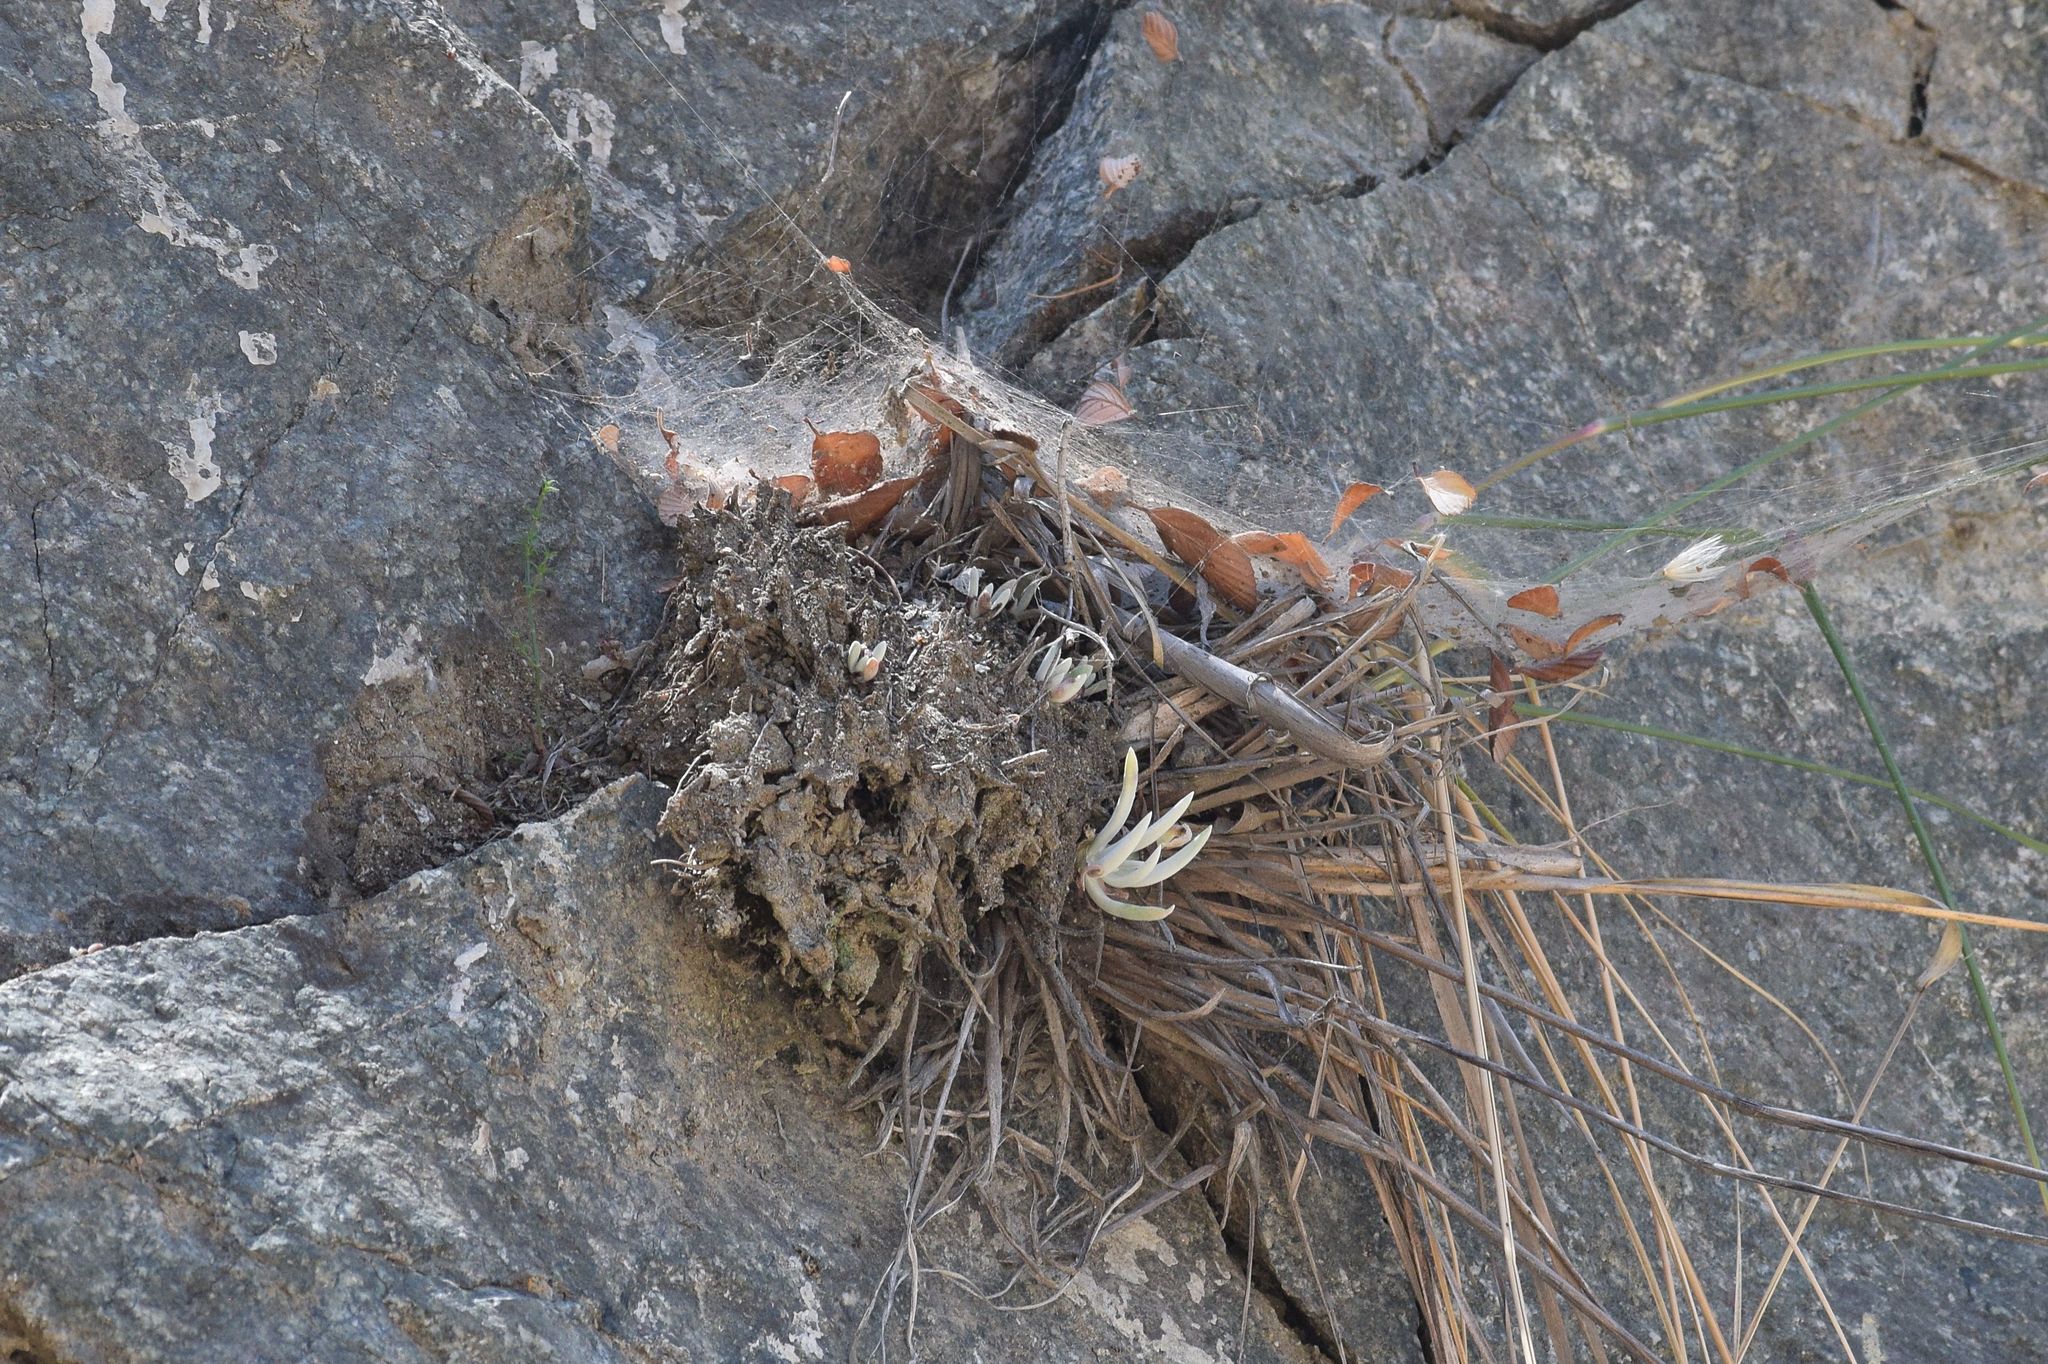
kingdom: Plantae
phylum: Tracheophyta
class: Magnoliopsida
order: Saxifragales
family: Crassulaceae
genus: Dudleya
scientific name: Dudleya densiflora
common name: San gabriel mountains dudleya
